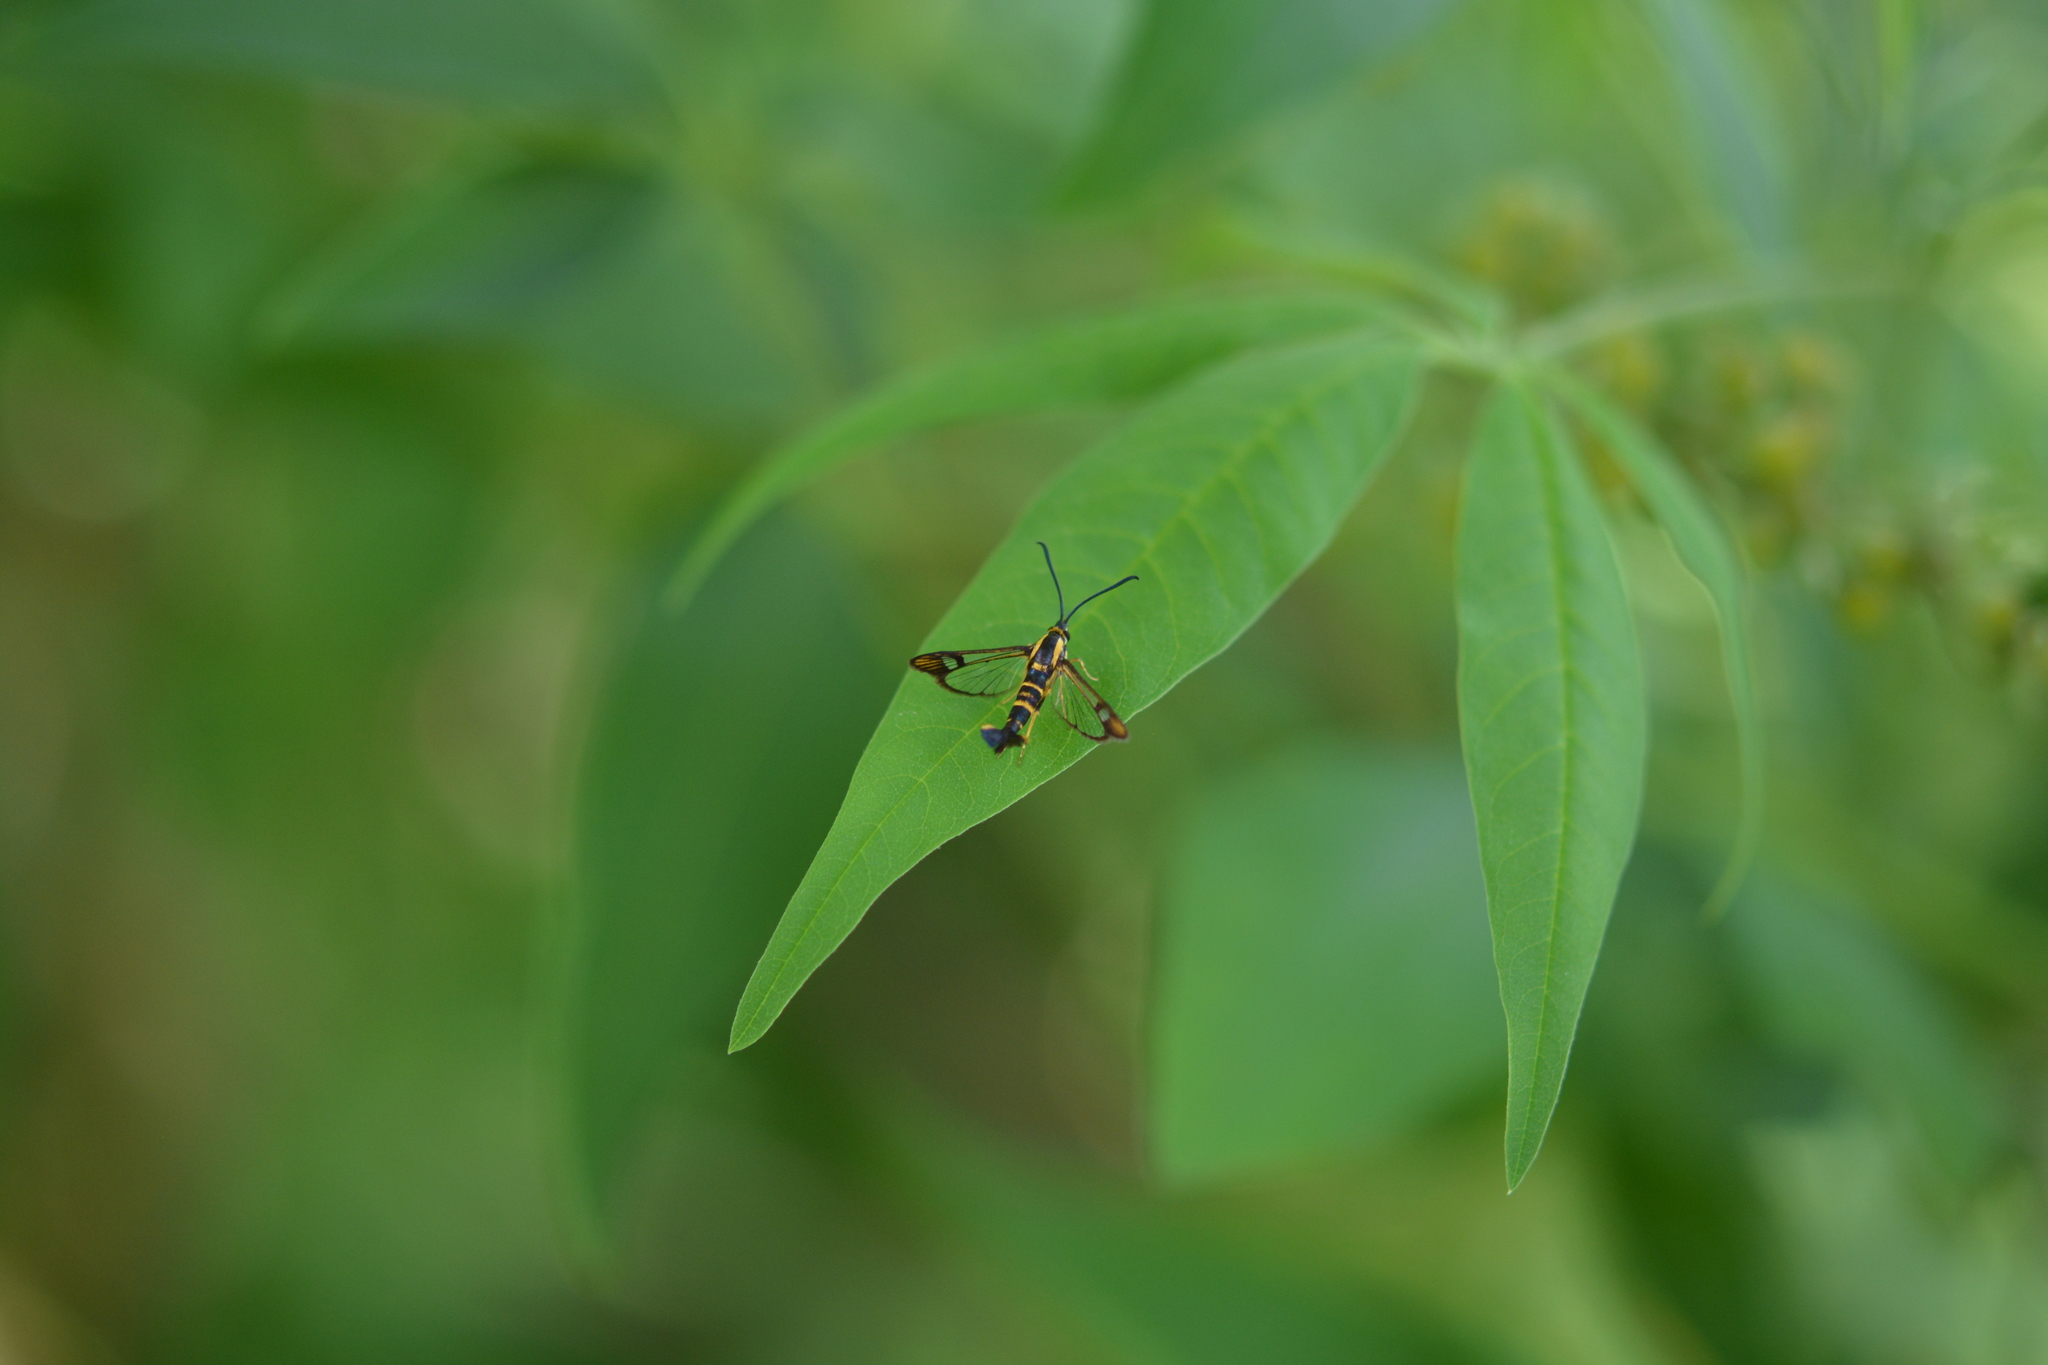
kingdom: Animalia
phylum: Arthropoda
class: Insecta
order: Lepidoptera
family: Sesiidae
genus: Synanthedon
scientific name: Synanthedon scitula
